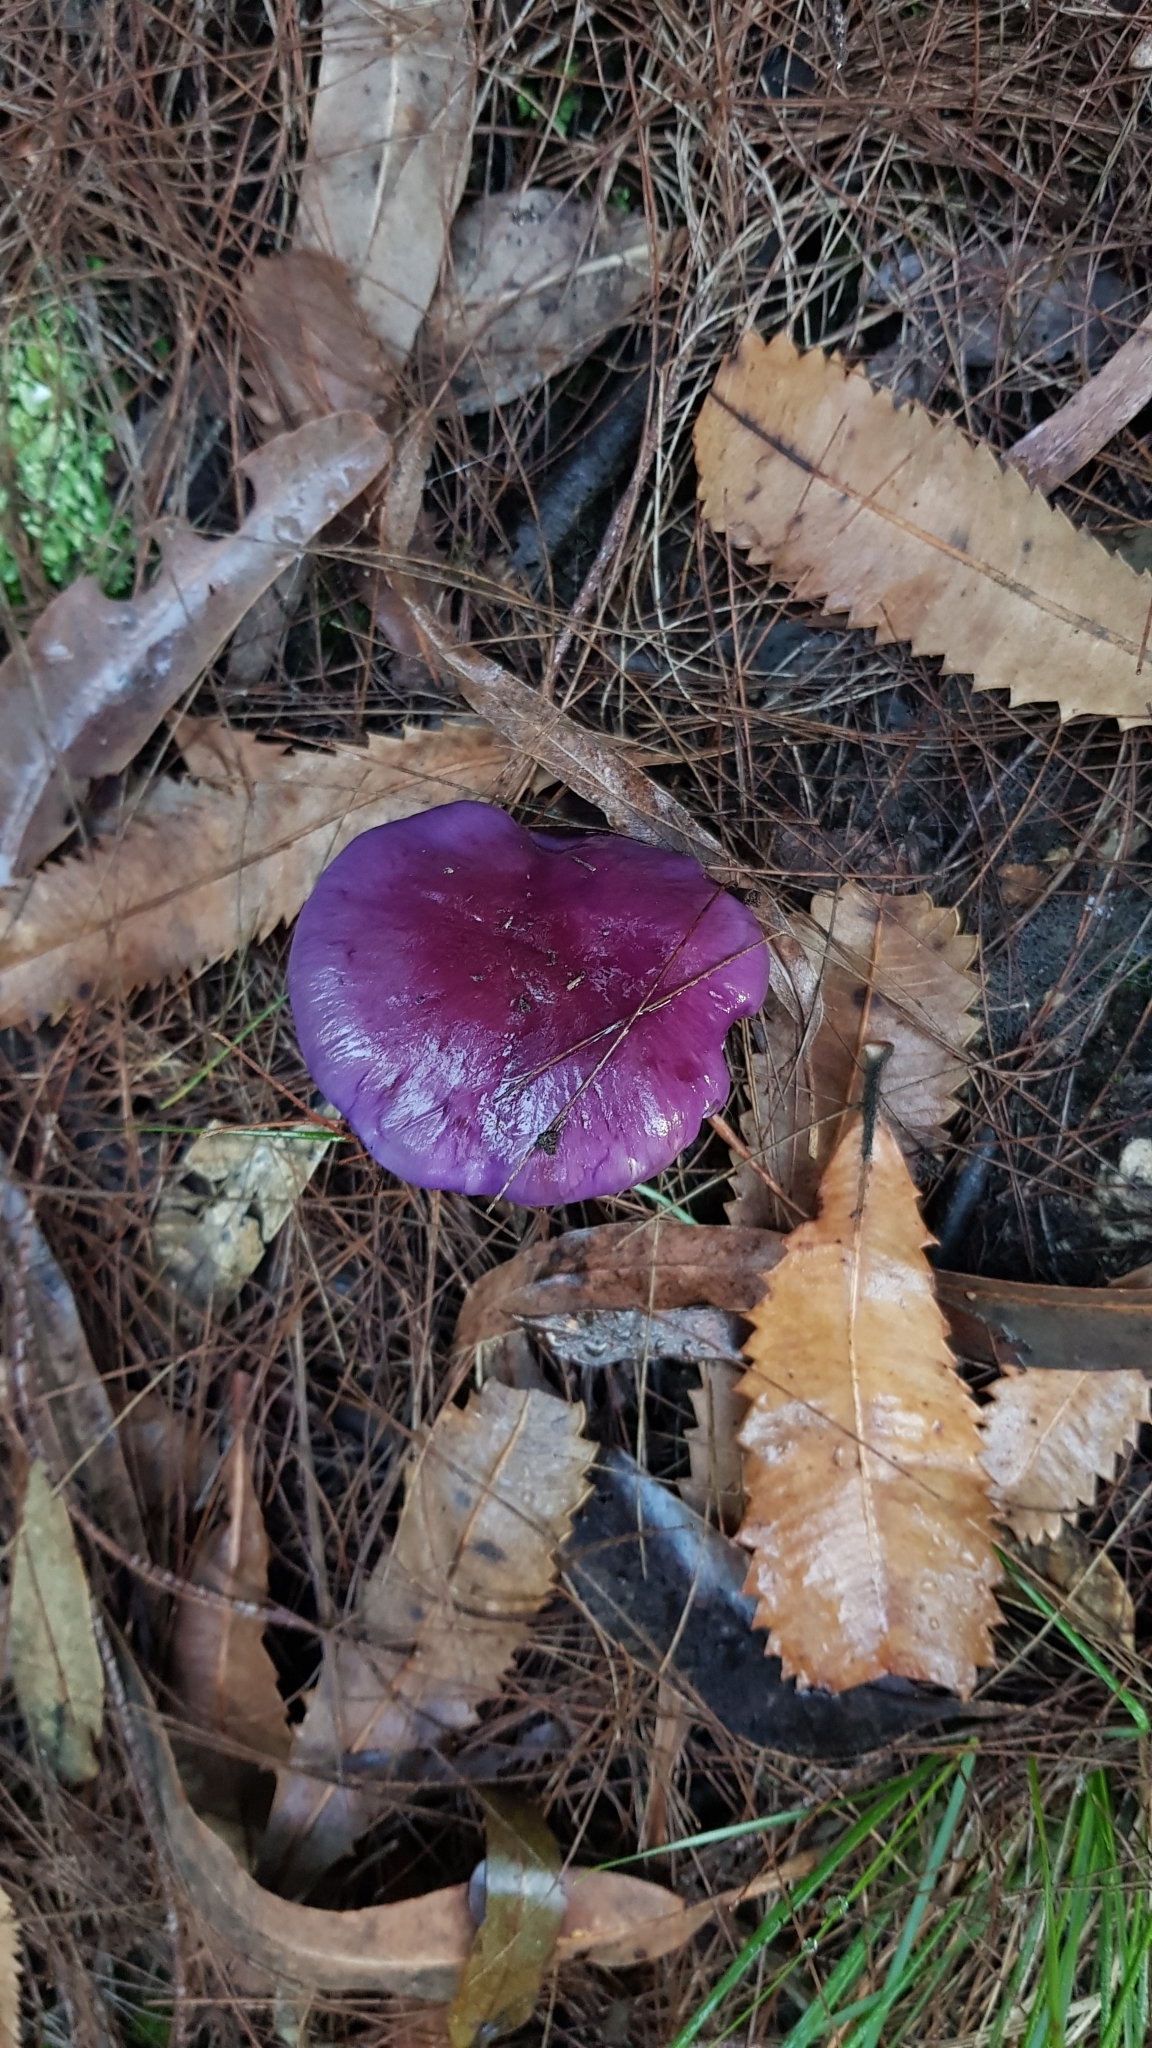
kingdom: Fungi
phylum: Basidiomycota
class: Agaricomycetes
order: Agaricales
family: Cortinariaceae
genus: Cortinarius
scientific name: Cortinarius archeri
